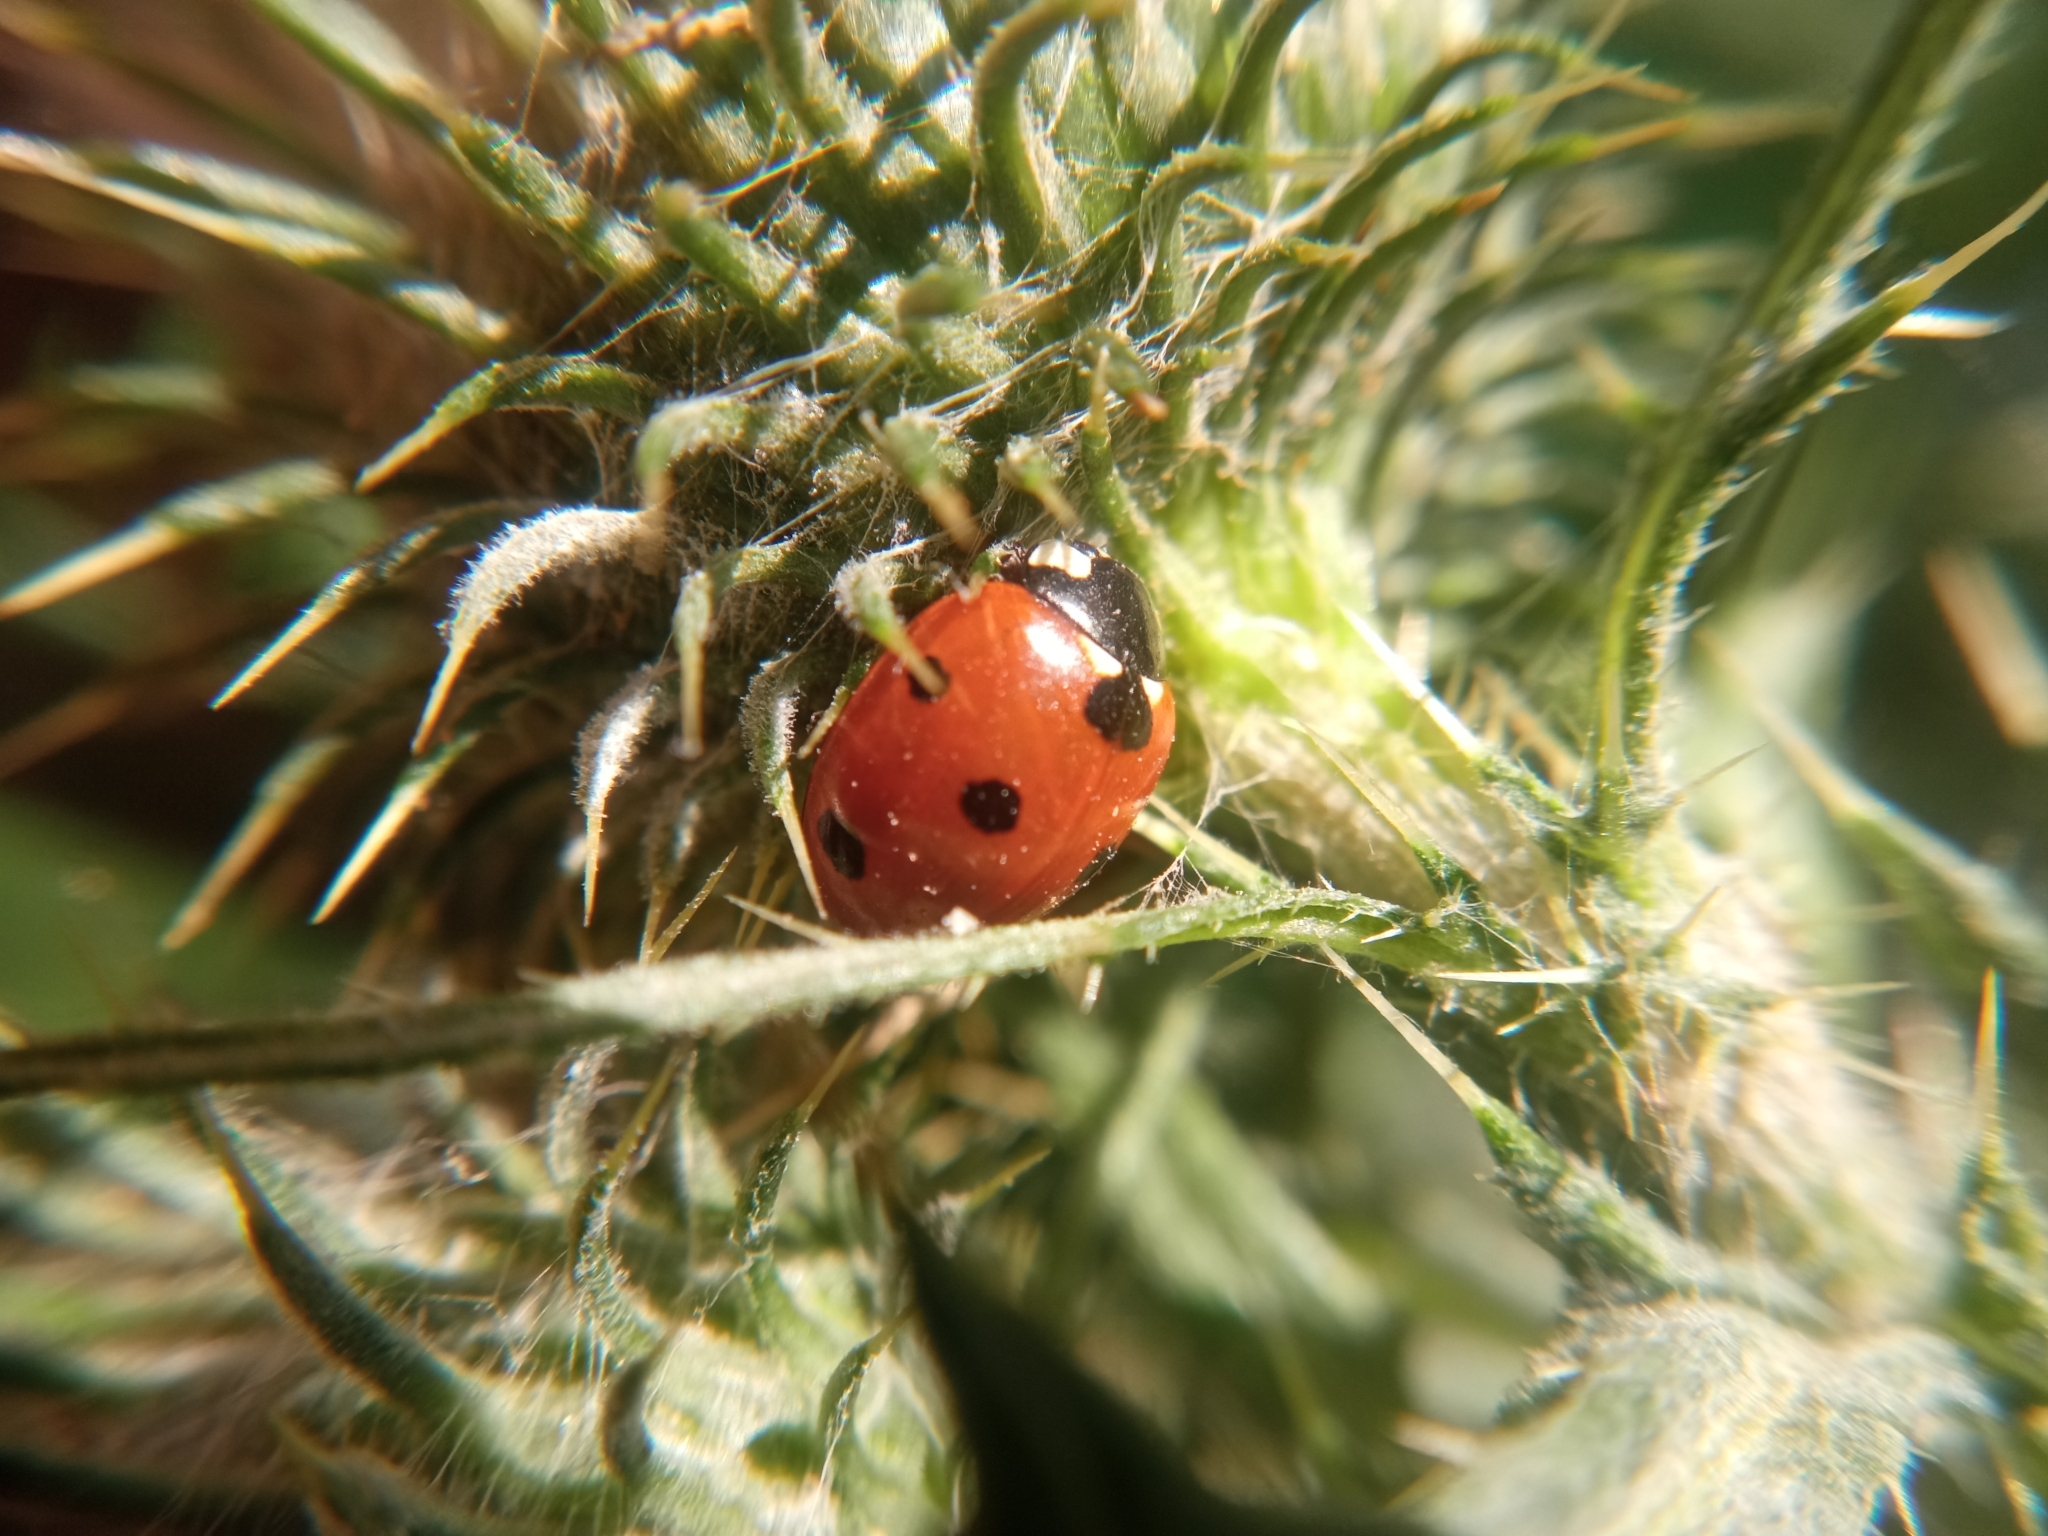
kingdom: Animalia
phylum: Arthropoda
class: Insecta
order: Coleoptera
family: Coccinellidae
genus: Coccinella
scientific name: Coccinella septempunctata
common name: Sevenspotted lady beetle
